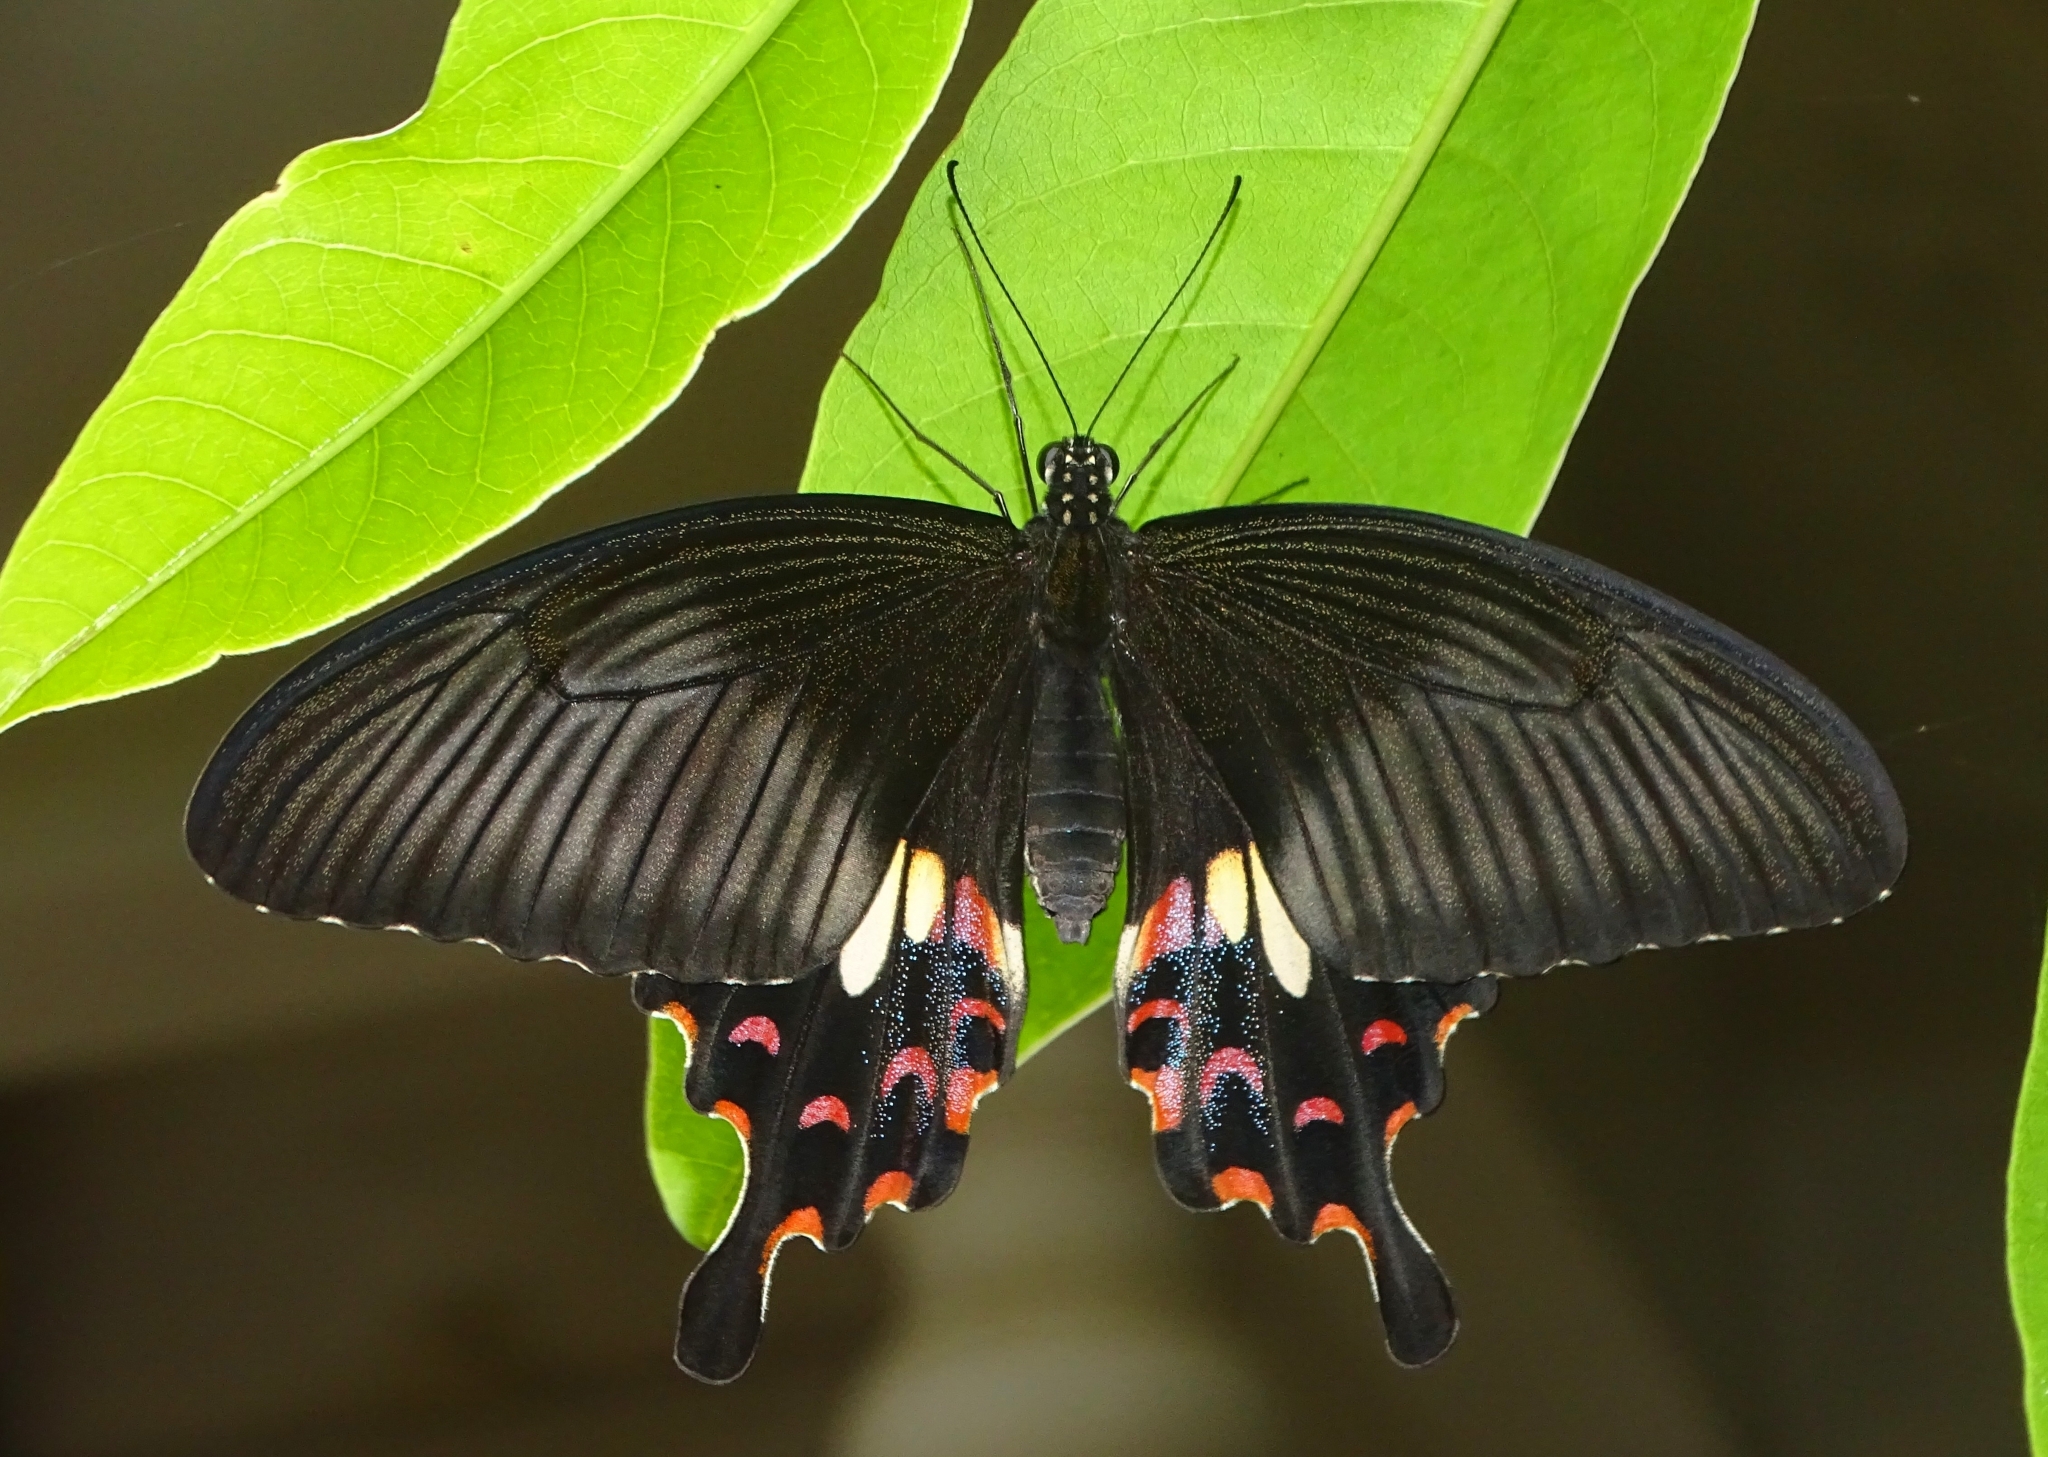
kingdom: Animalia
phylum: Arthropoda
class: Insecta
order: Lepidoptera
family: Papilionidae
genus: Papilio
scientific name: Papilio polytes
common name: Common mormon
